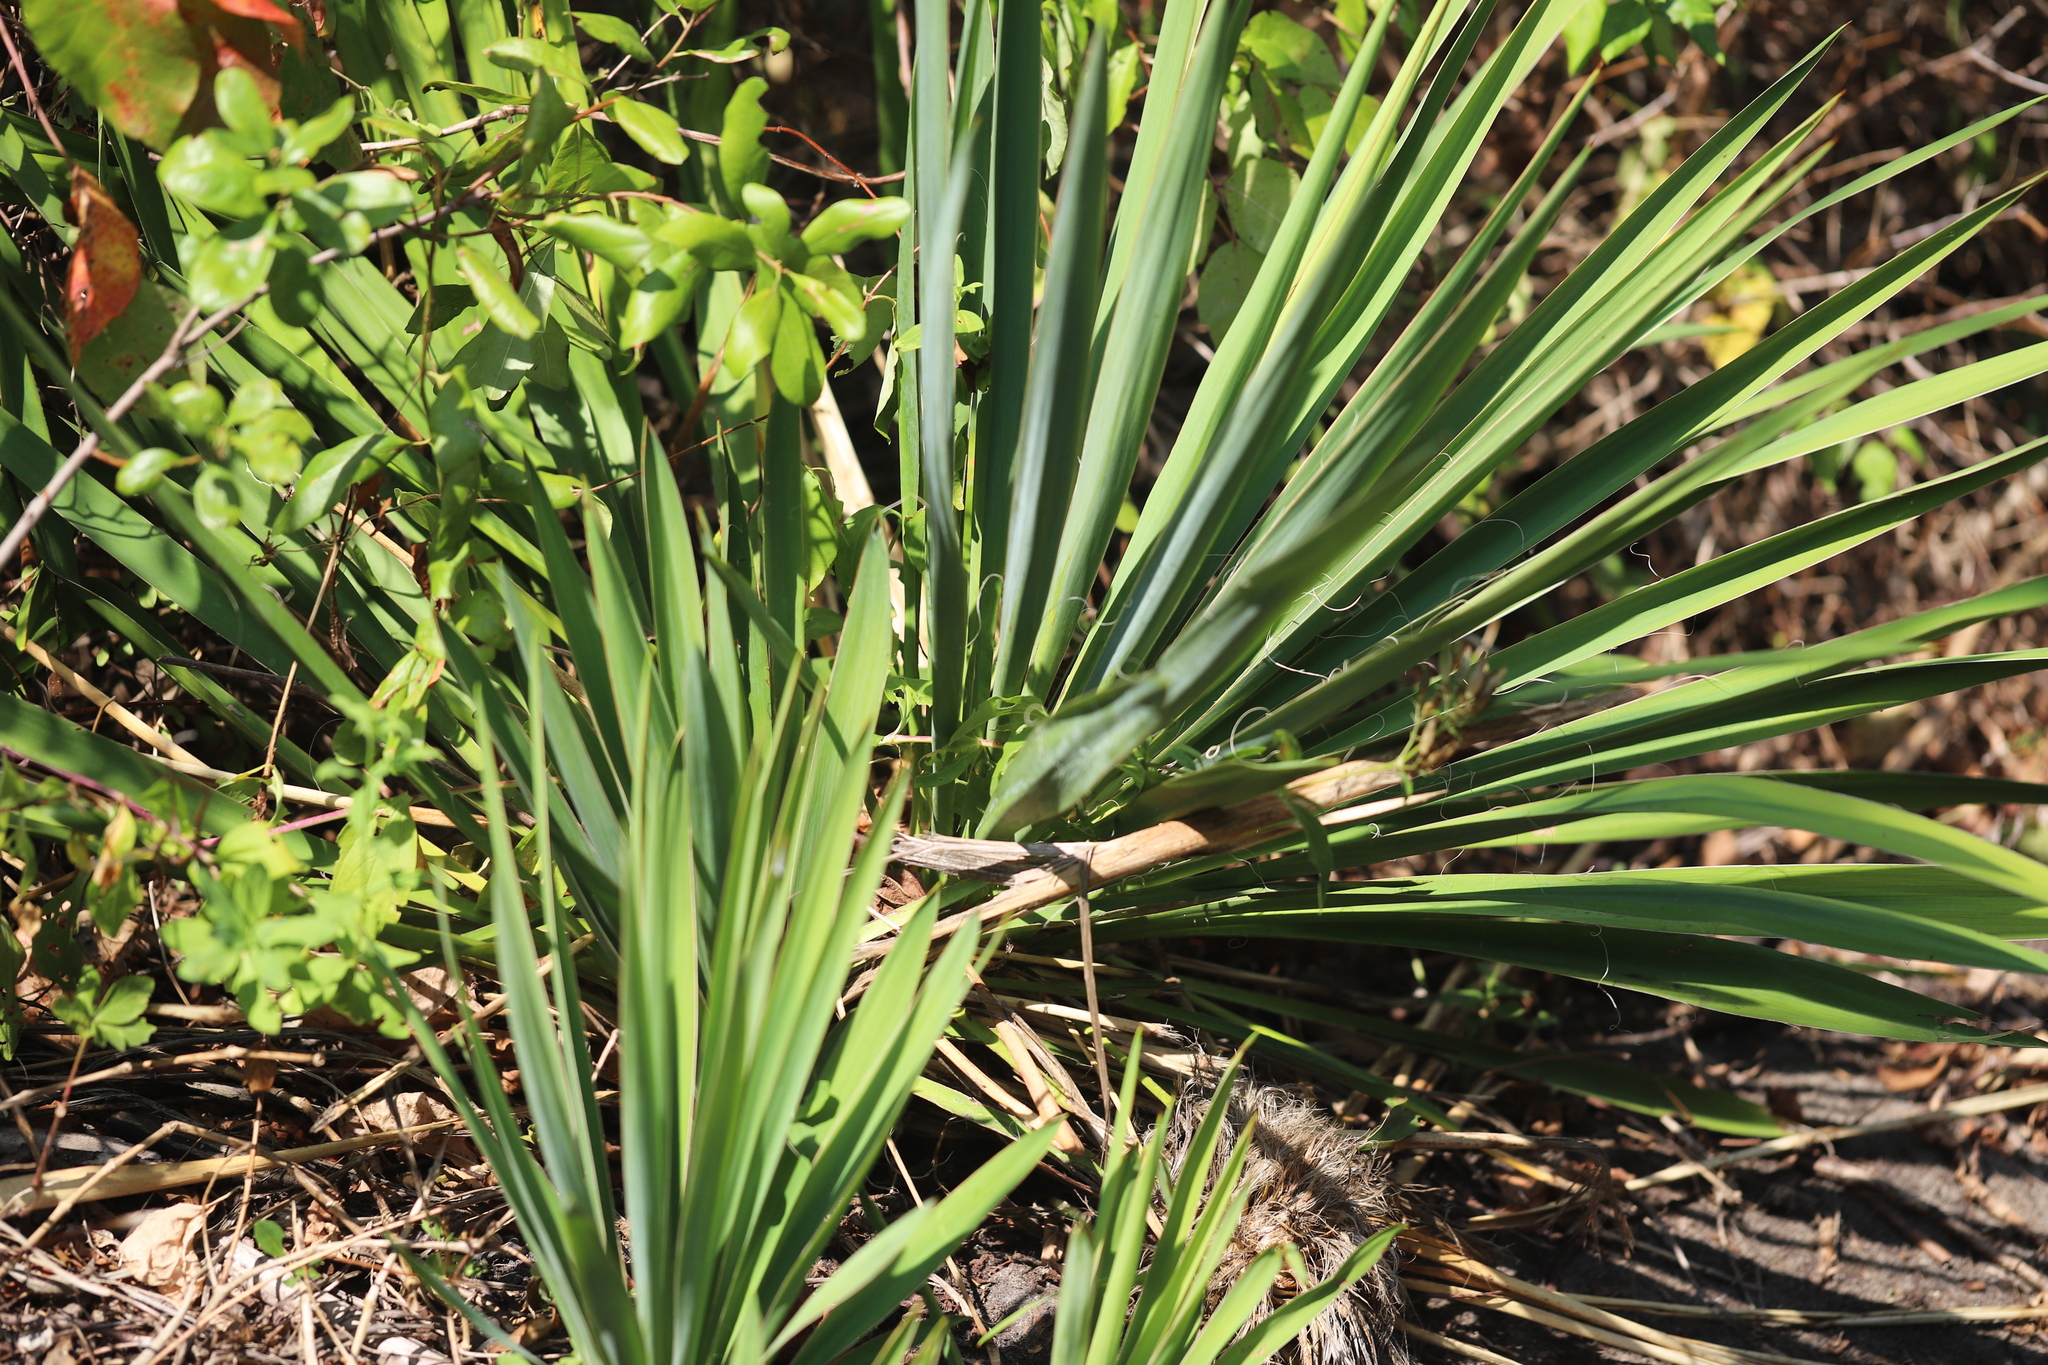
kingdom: Plantae
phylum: Tracheophyta
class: Liliopsida
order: Asparagales
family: Asparagaceae
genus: Yucca
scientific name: Yucca filamentosa
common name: Adam's-needle
